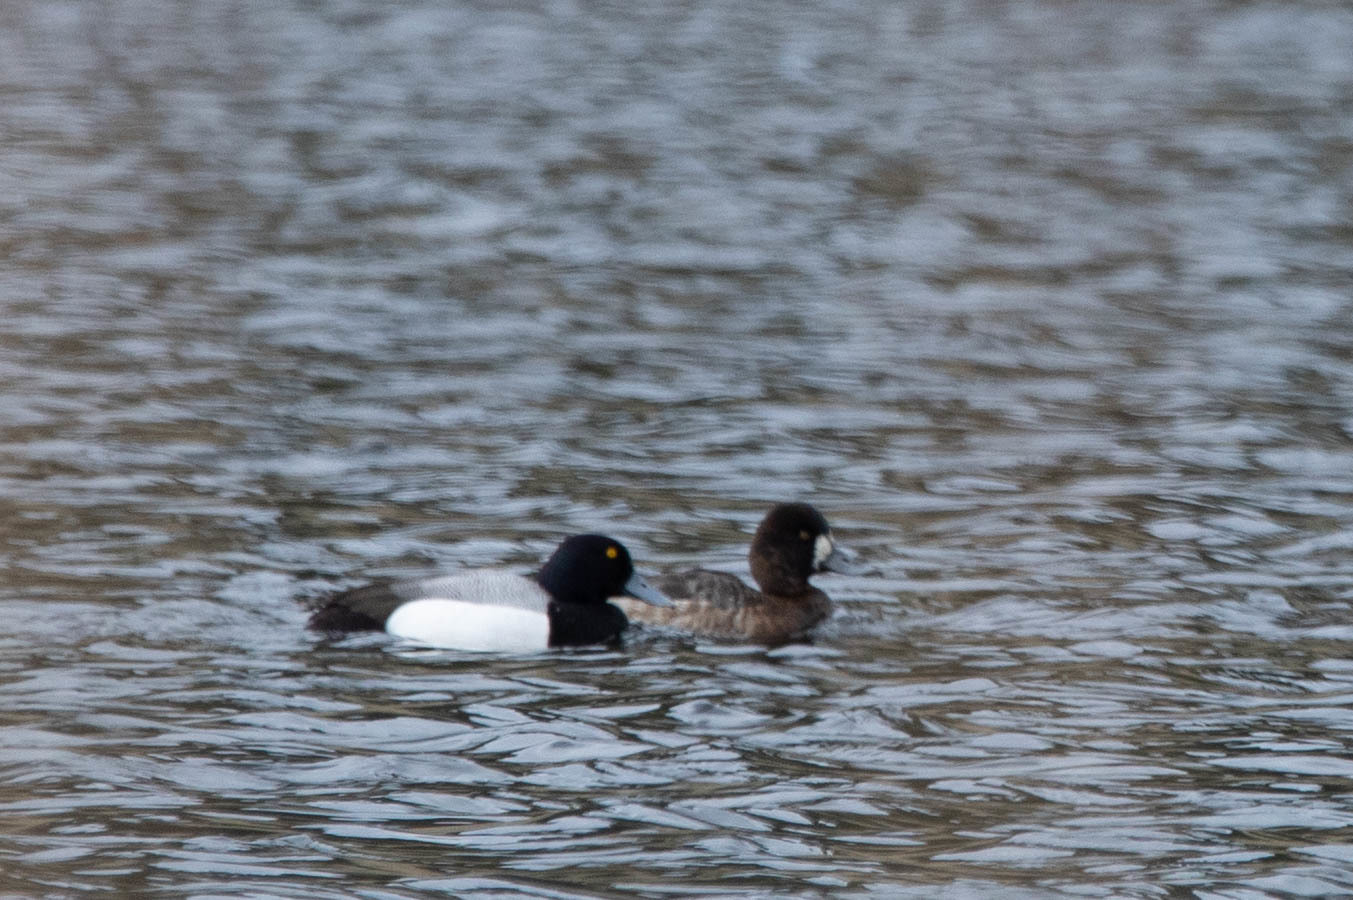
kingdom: Animalia
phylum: Chordata
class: Aves
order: Anseriformes
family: Anatidae
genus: Aythya
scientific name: Aythya affinis
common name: Lesser scaup
